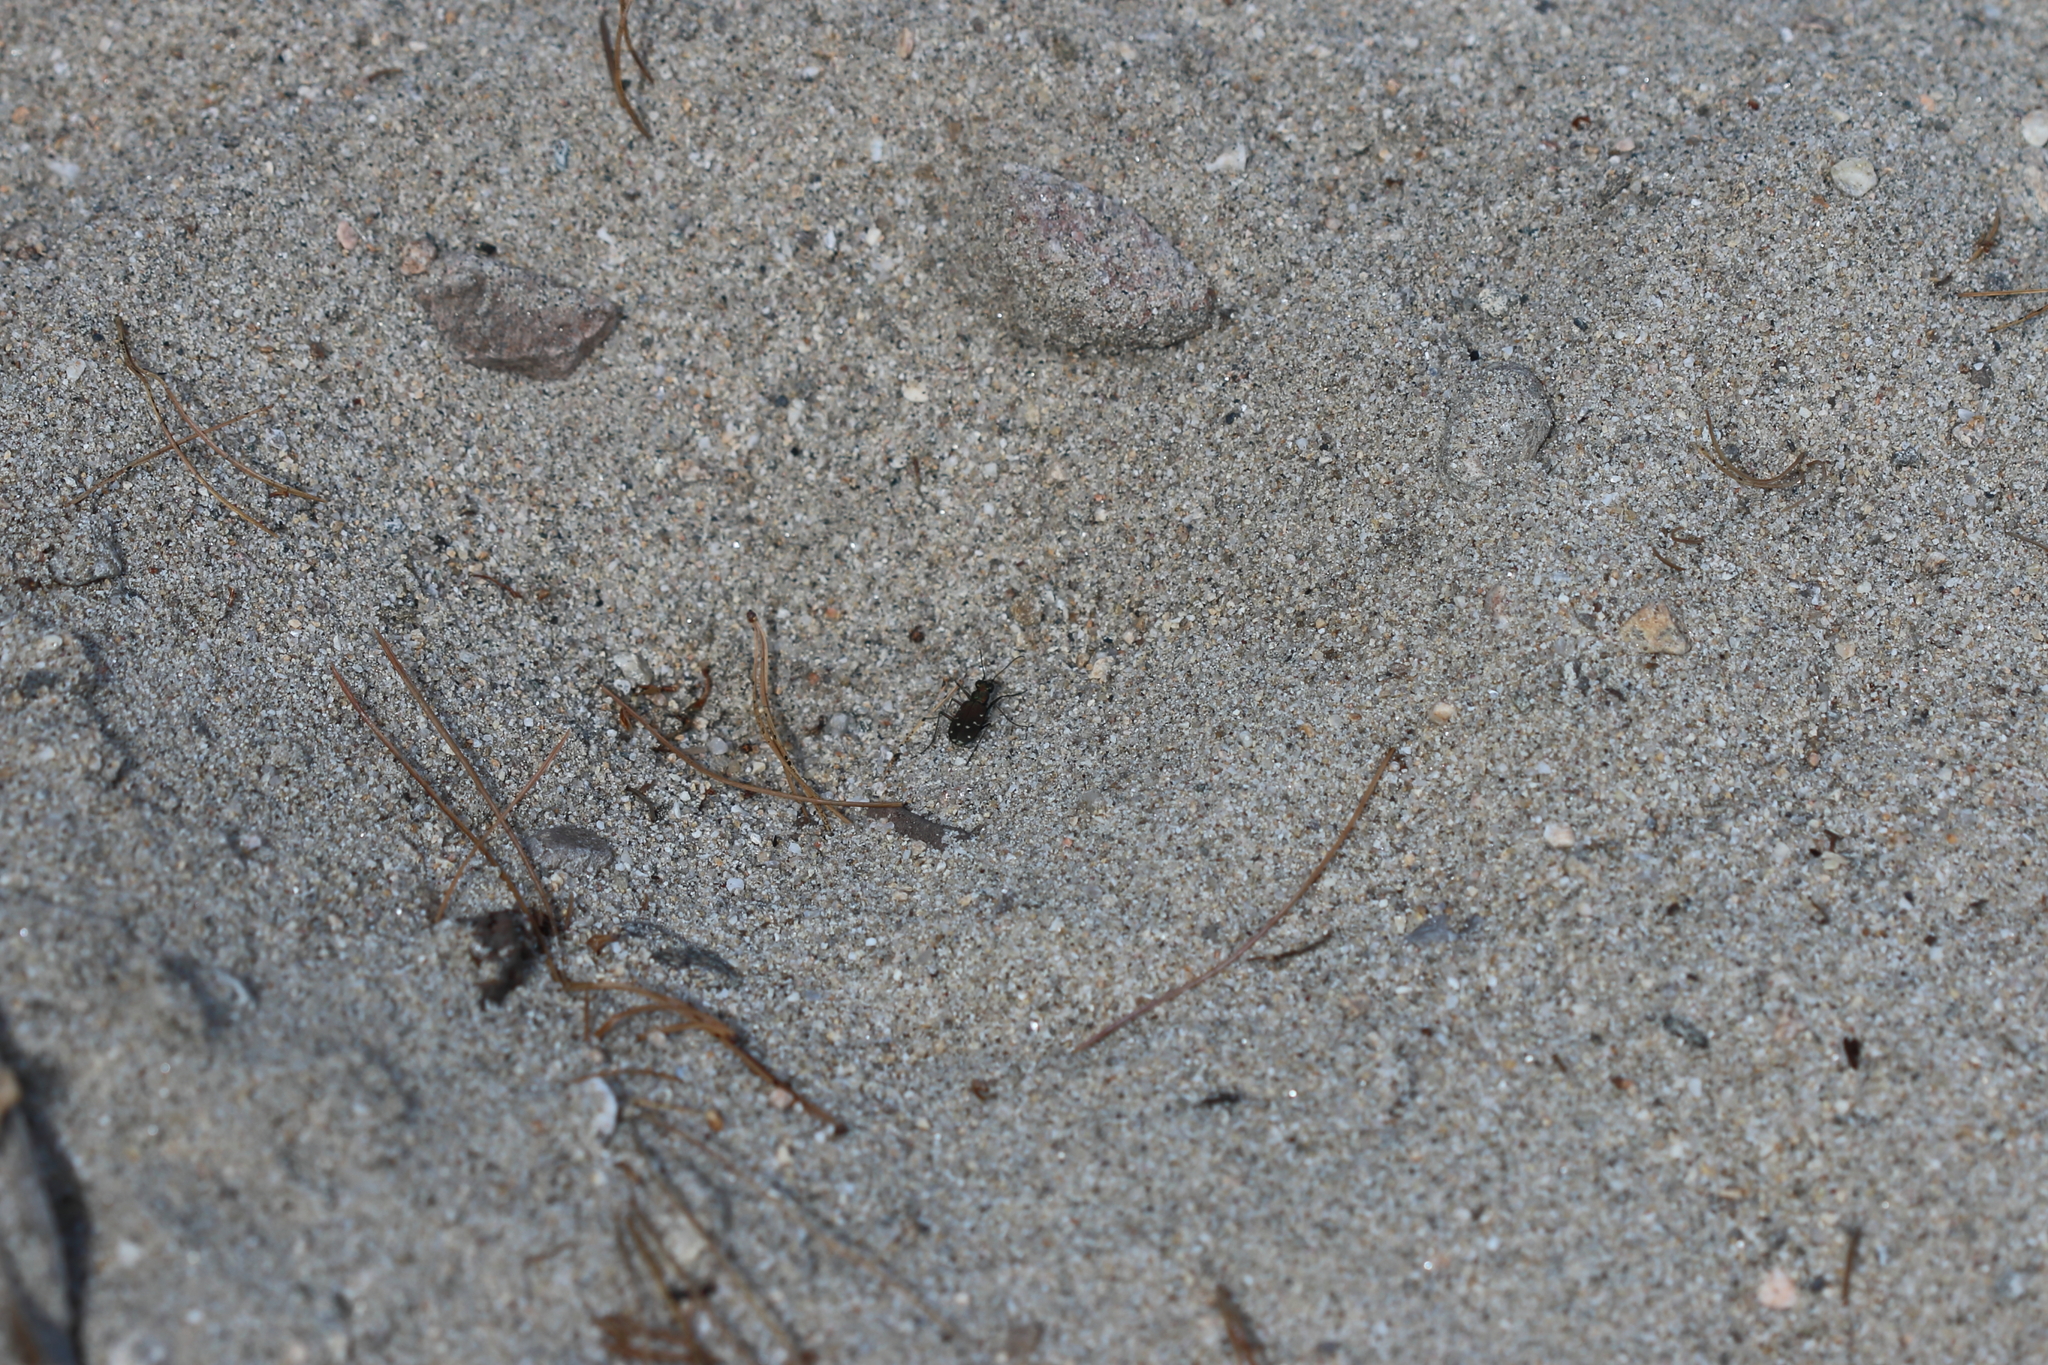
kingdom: Animalia
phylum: Arthropoda
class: Insecta
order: Coleoptera
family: Carabidae
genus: Cicindela
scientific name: Cicindela oregona
